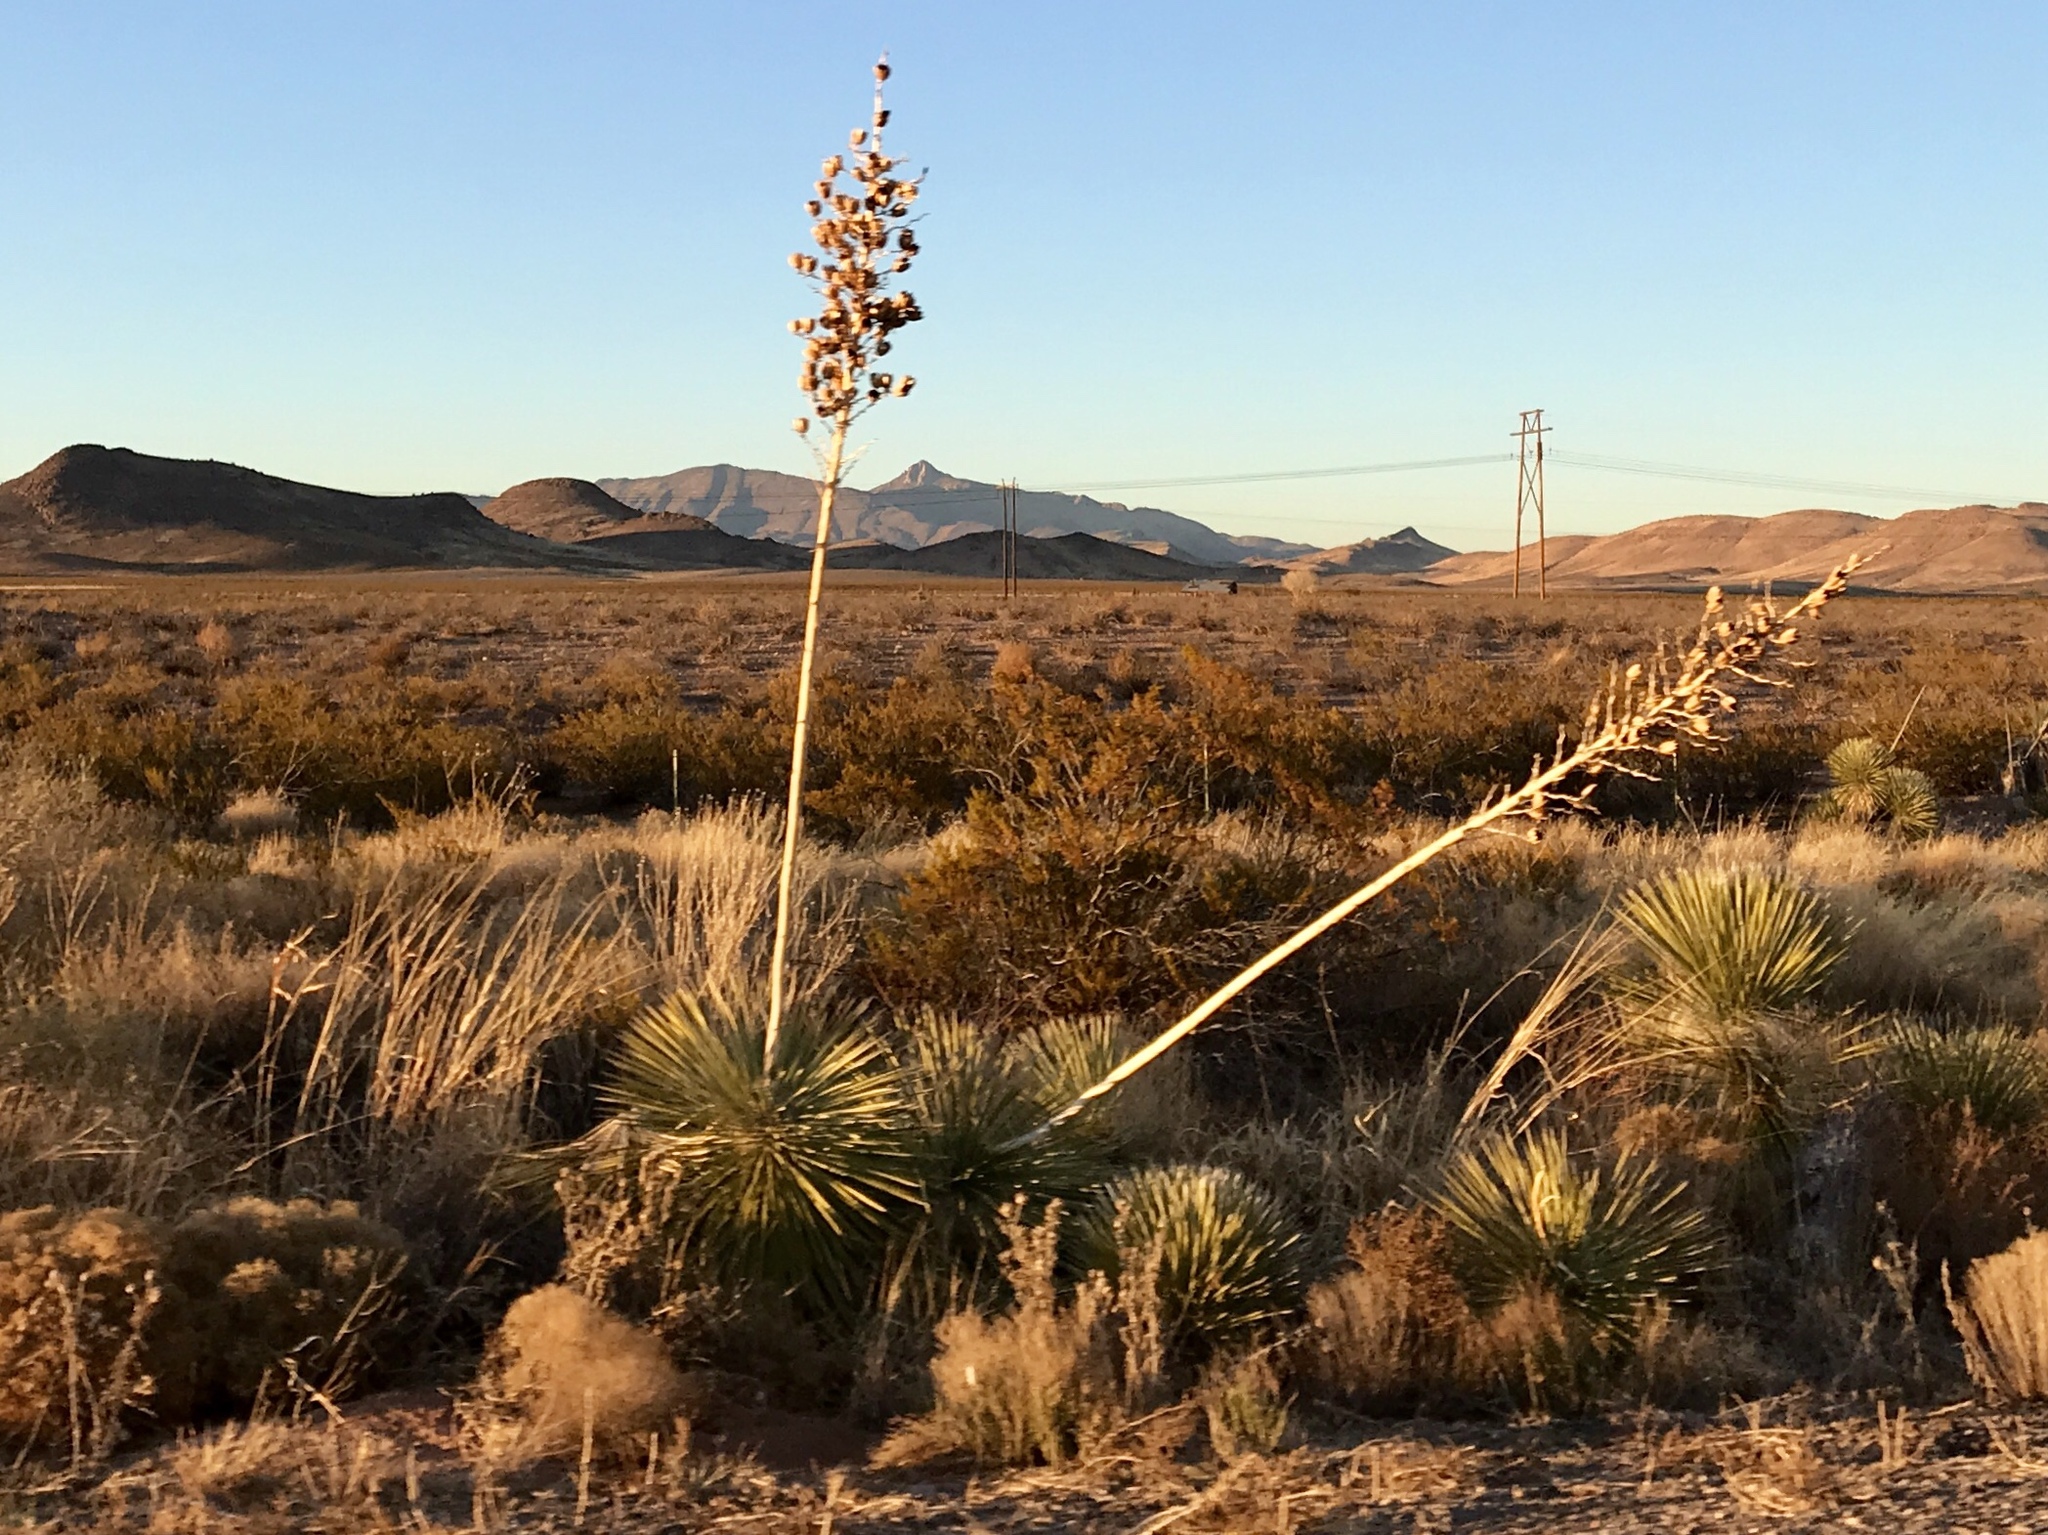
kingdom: Plantae
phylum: Tracheophyta
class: Liliopsida
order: Asparagales
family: Asparagaceae
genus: Yucca
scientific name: Yucca elata
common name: Palmella
